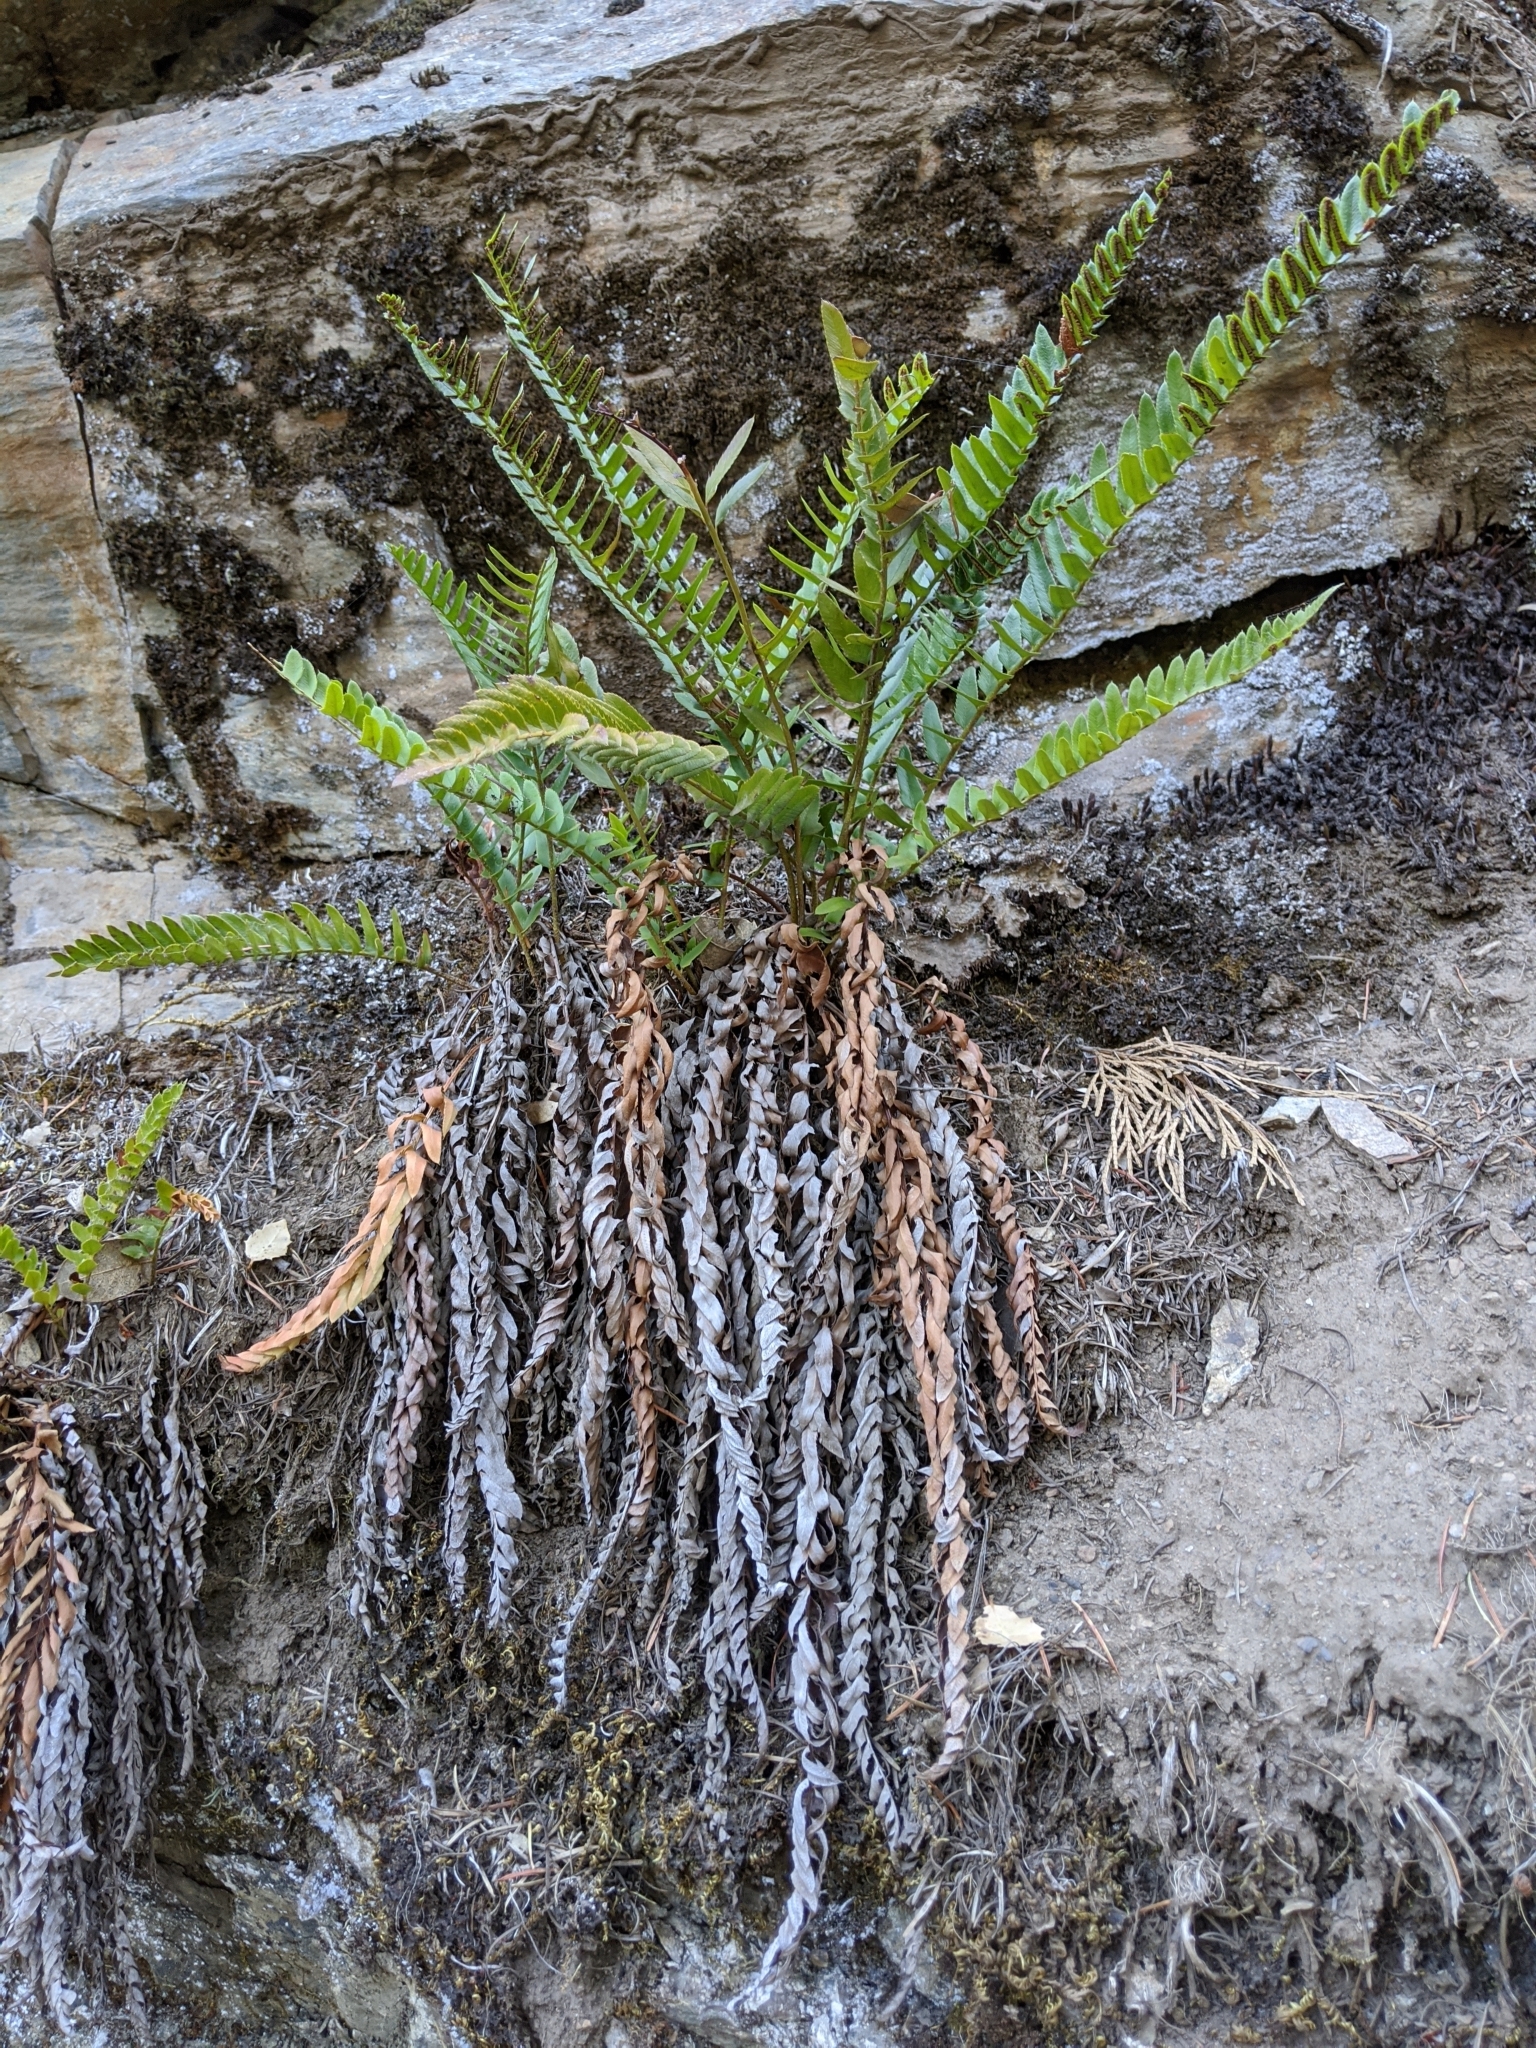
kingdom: Plantae
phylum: Tracheophyta
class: Polypodiopsida
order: Polypodiales
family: Dryopteridaceae
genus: Polystichum
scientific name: Polystichum imbricans
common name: Dwarf western sword fern
